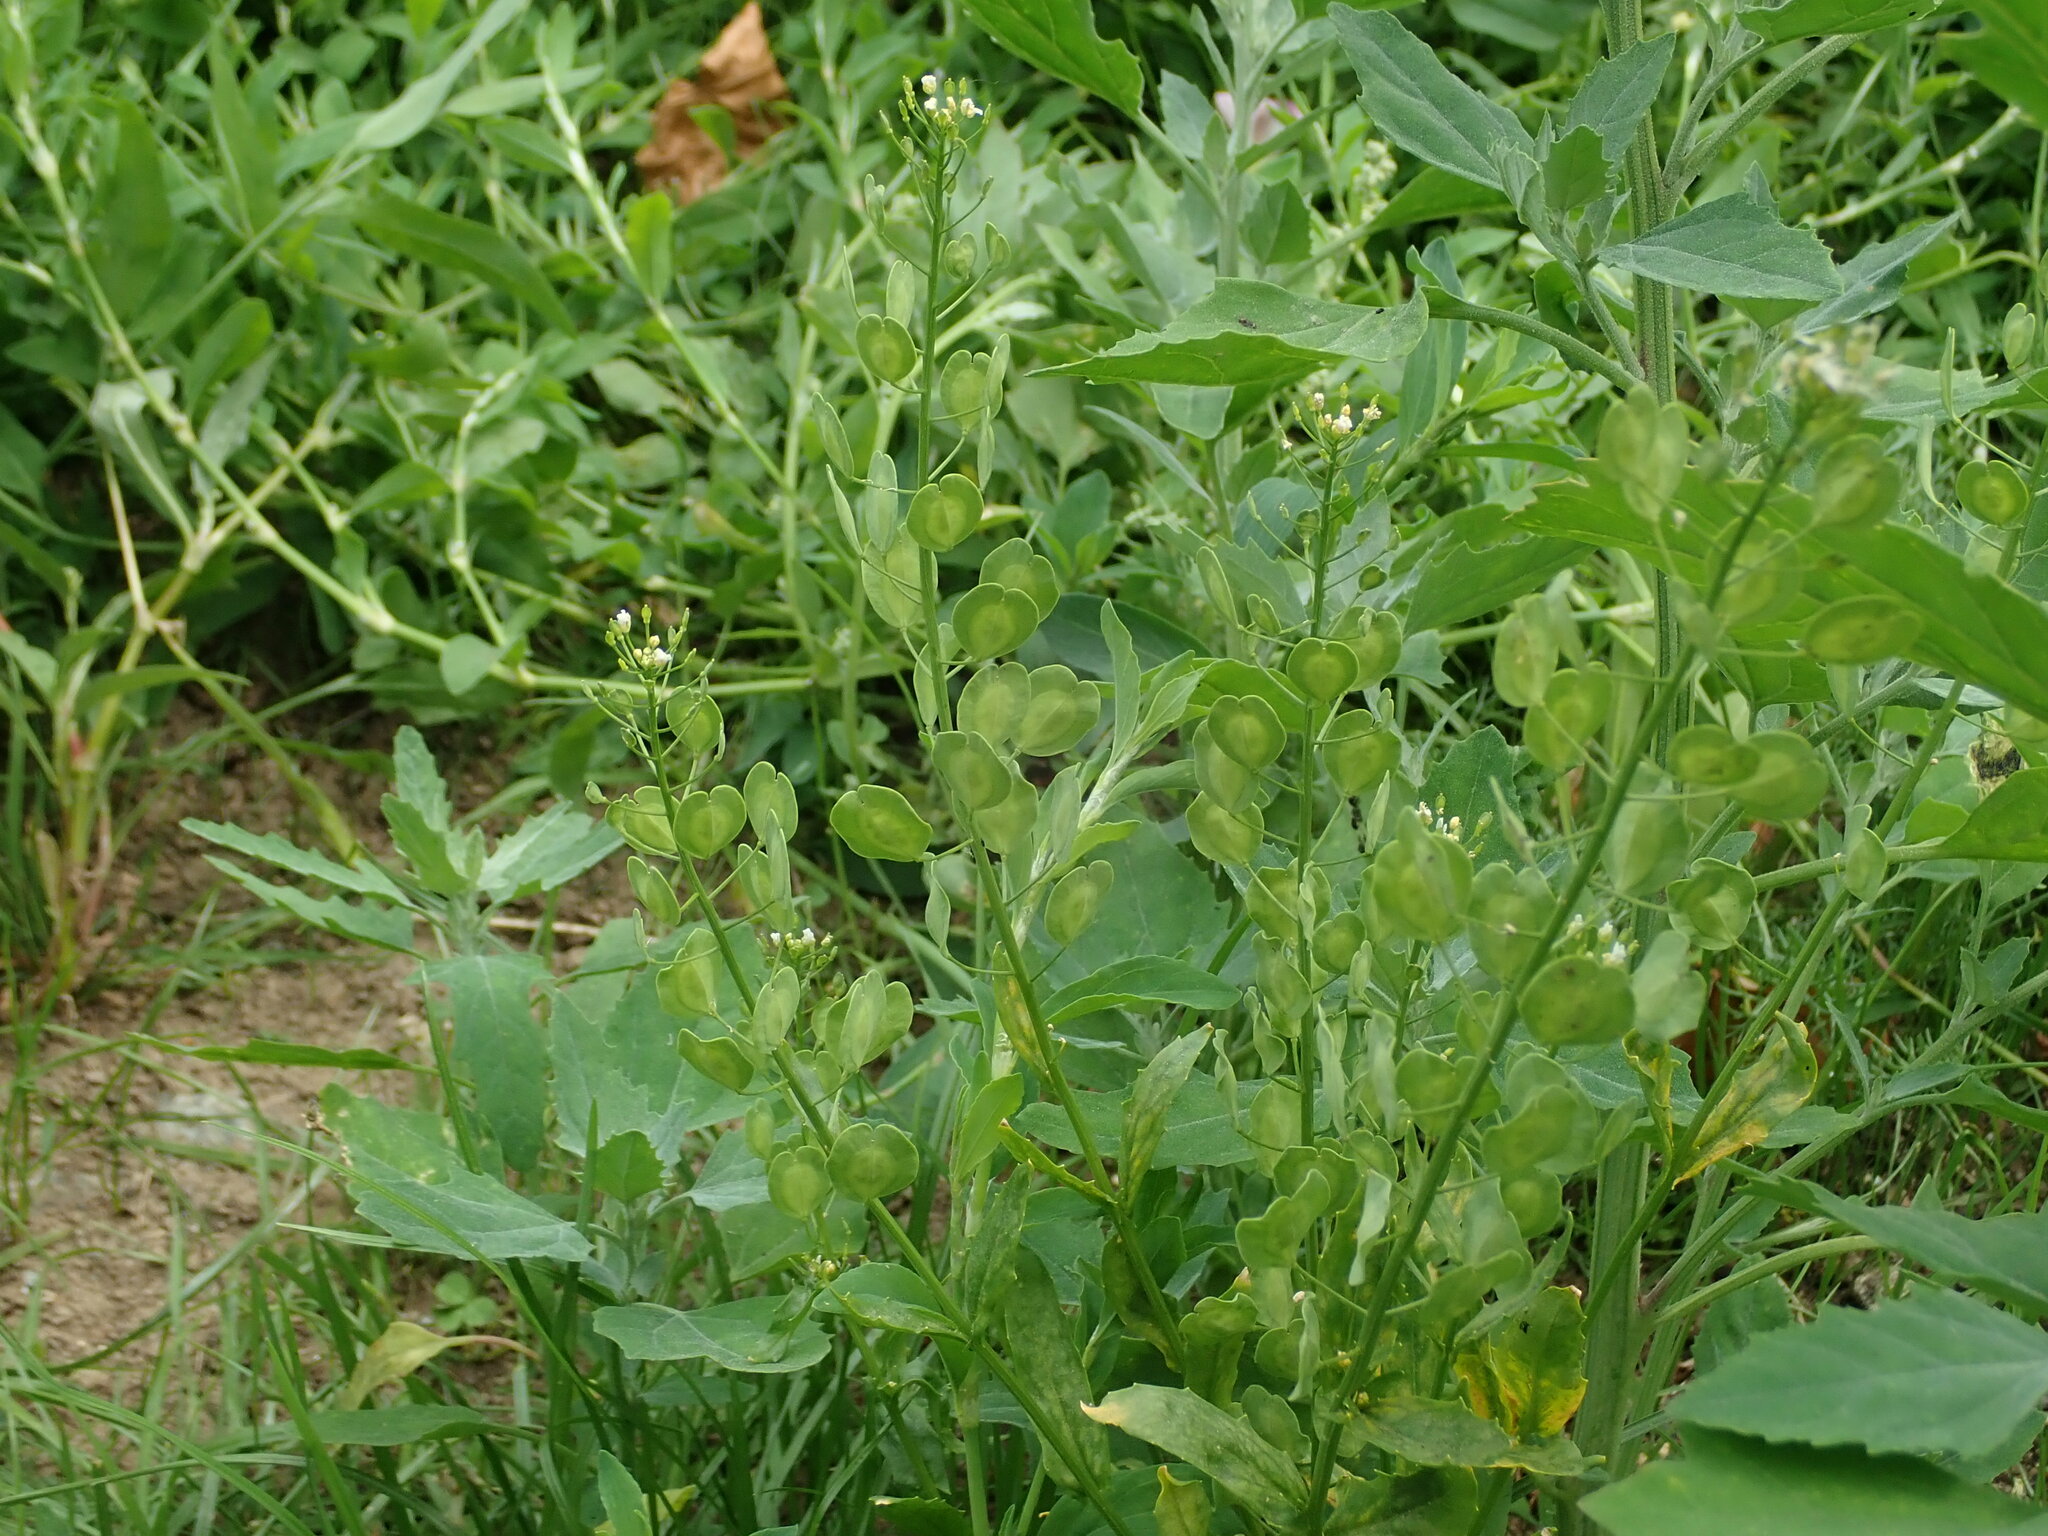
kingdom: Plantae
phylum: Tracheophyta
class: Magnoliopsida
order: Brassicales
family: Brassicaceae
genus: Thlaspi
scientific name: Thlaspi arvense
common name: Field pennycress
